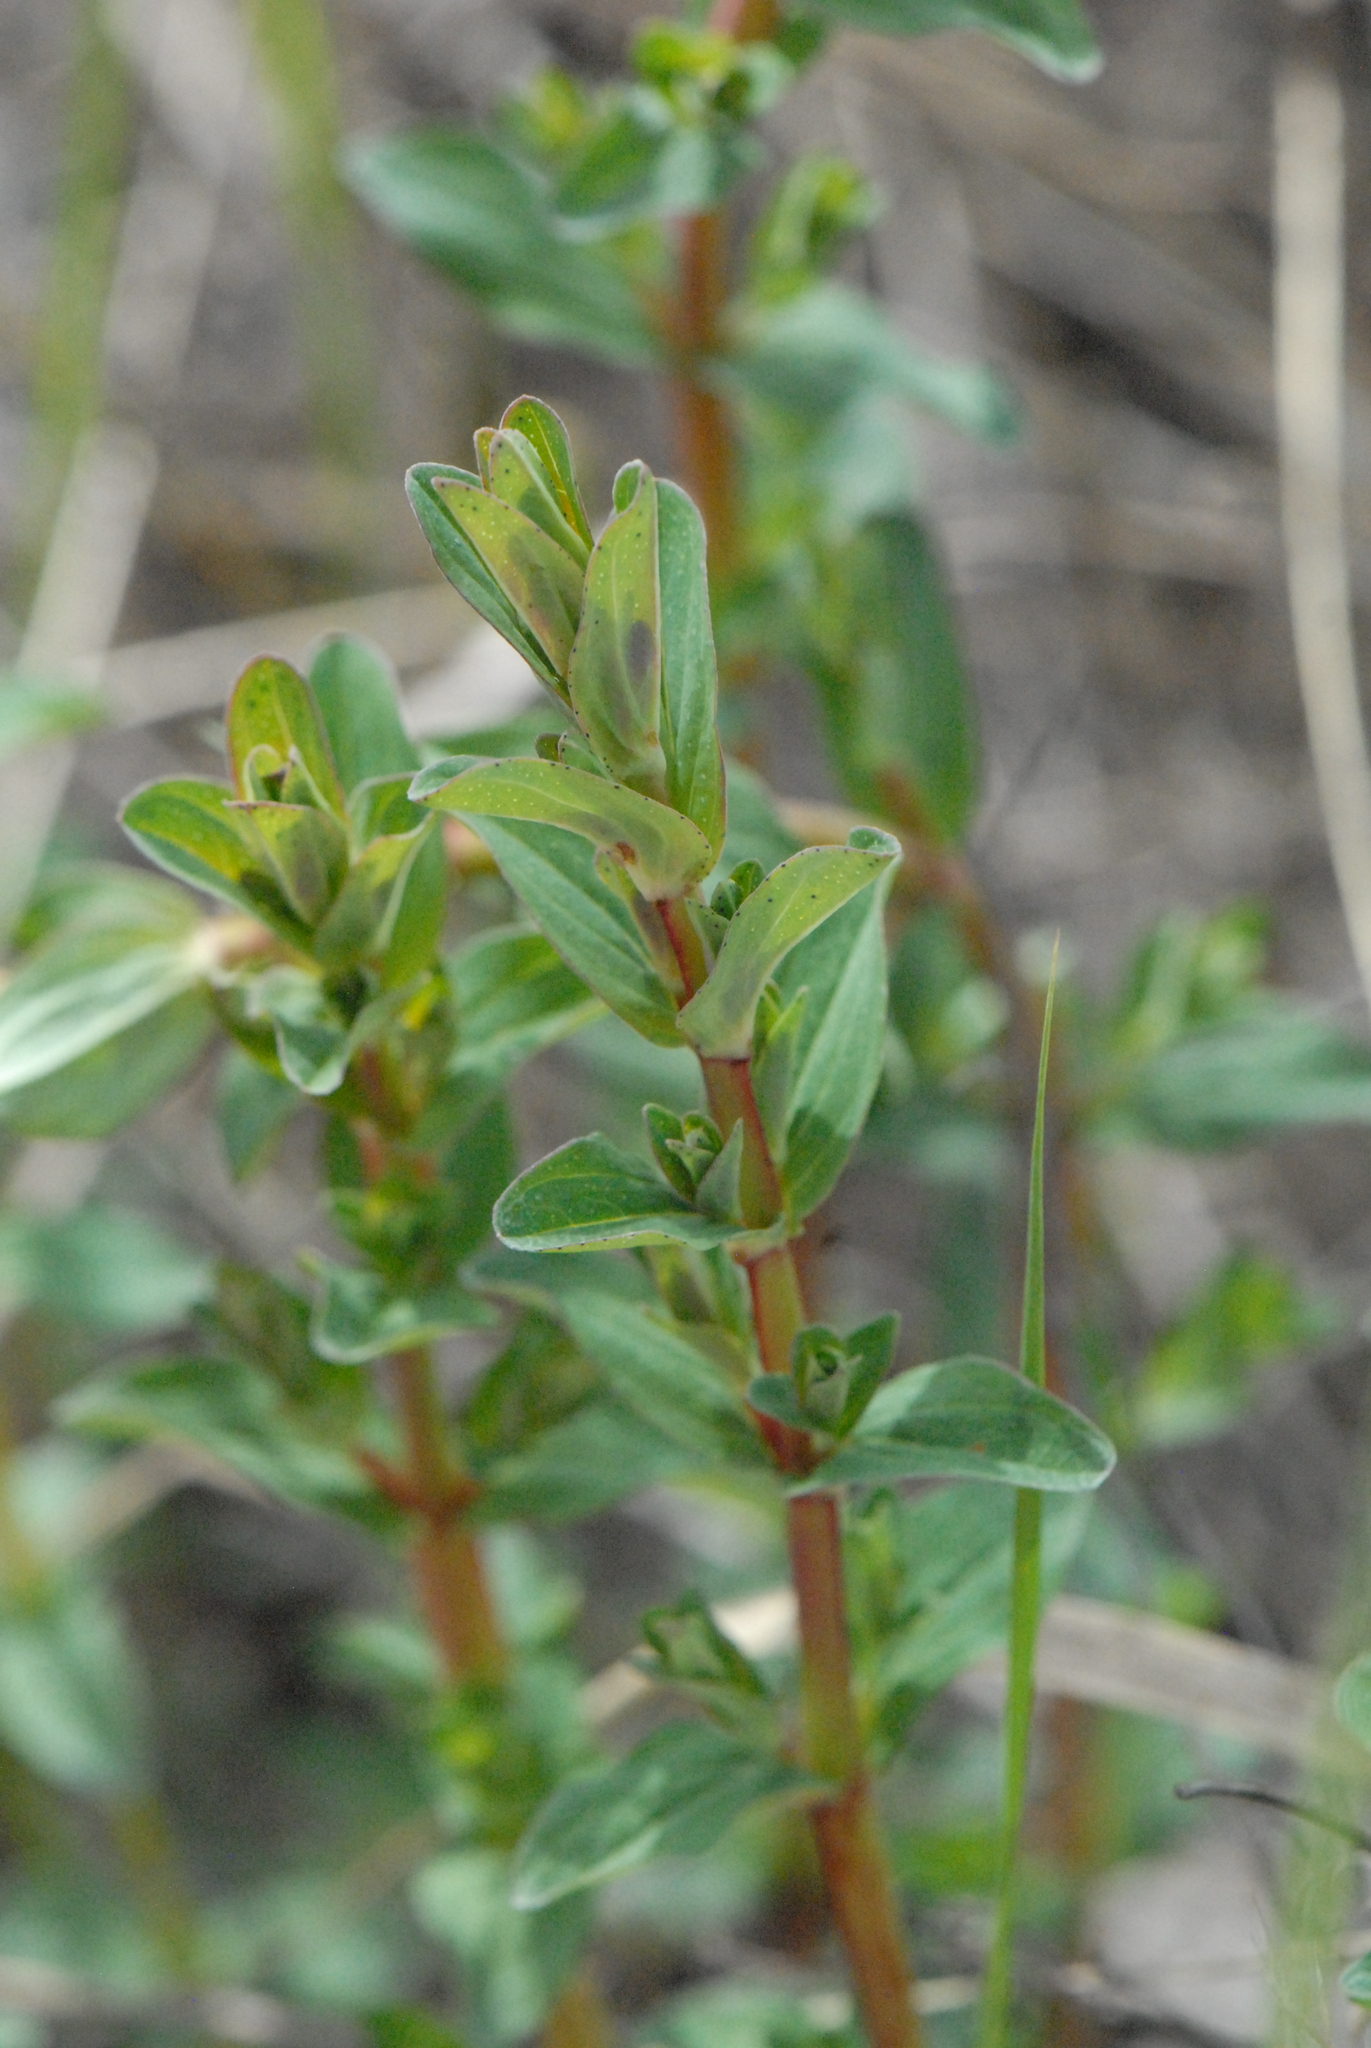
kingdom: Plantae
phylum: Tracheophyta
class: Magnoliopsida
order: Malpighiales
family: Hypericaceae
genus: Hypericum
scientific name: Hypericum perforatum
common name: Common st. johnswort
